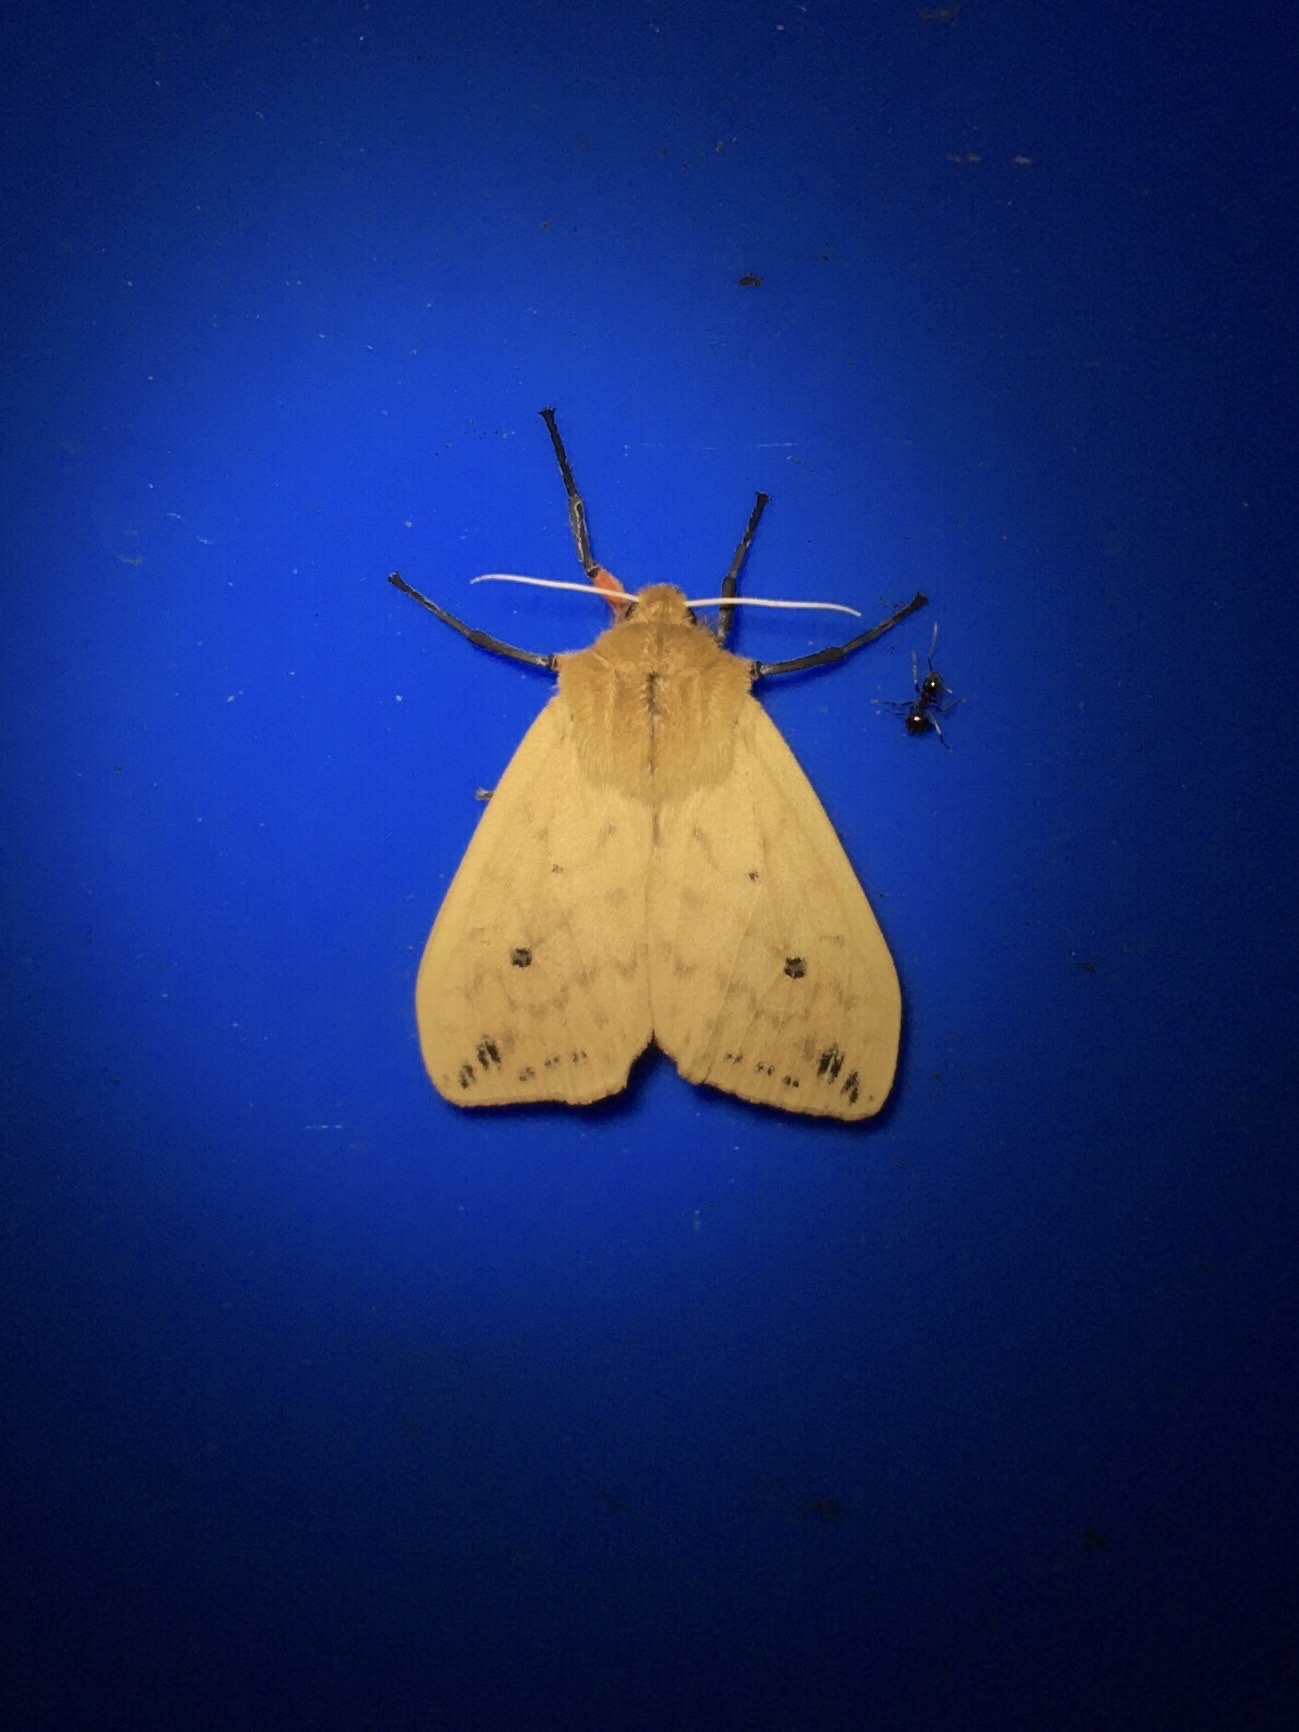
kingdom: Animalia
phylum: Arthropoda
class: Insecta
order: Lepidoptera
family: Erebidae
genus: Pyrrharctia
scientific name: Pyrrharctia isabella
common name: Isabella tiger moth
